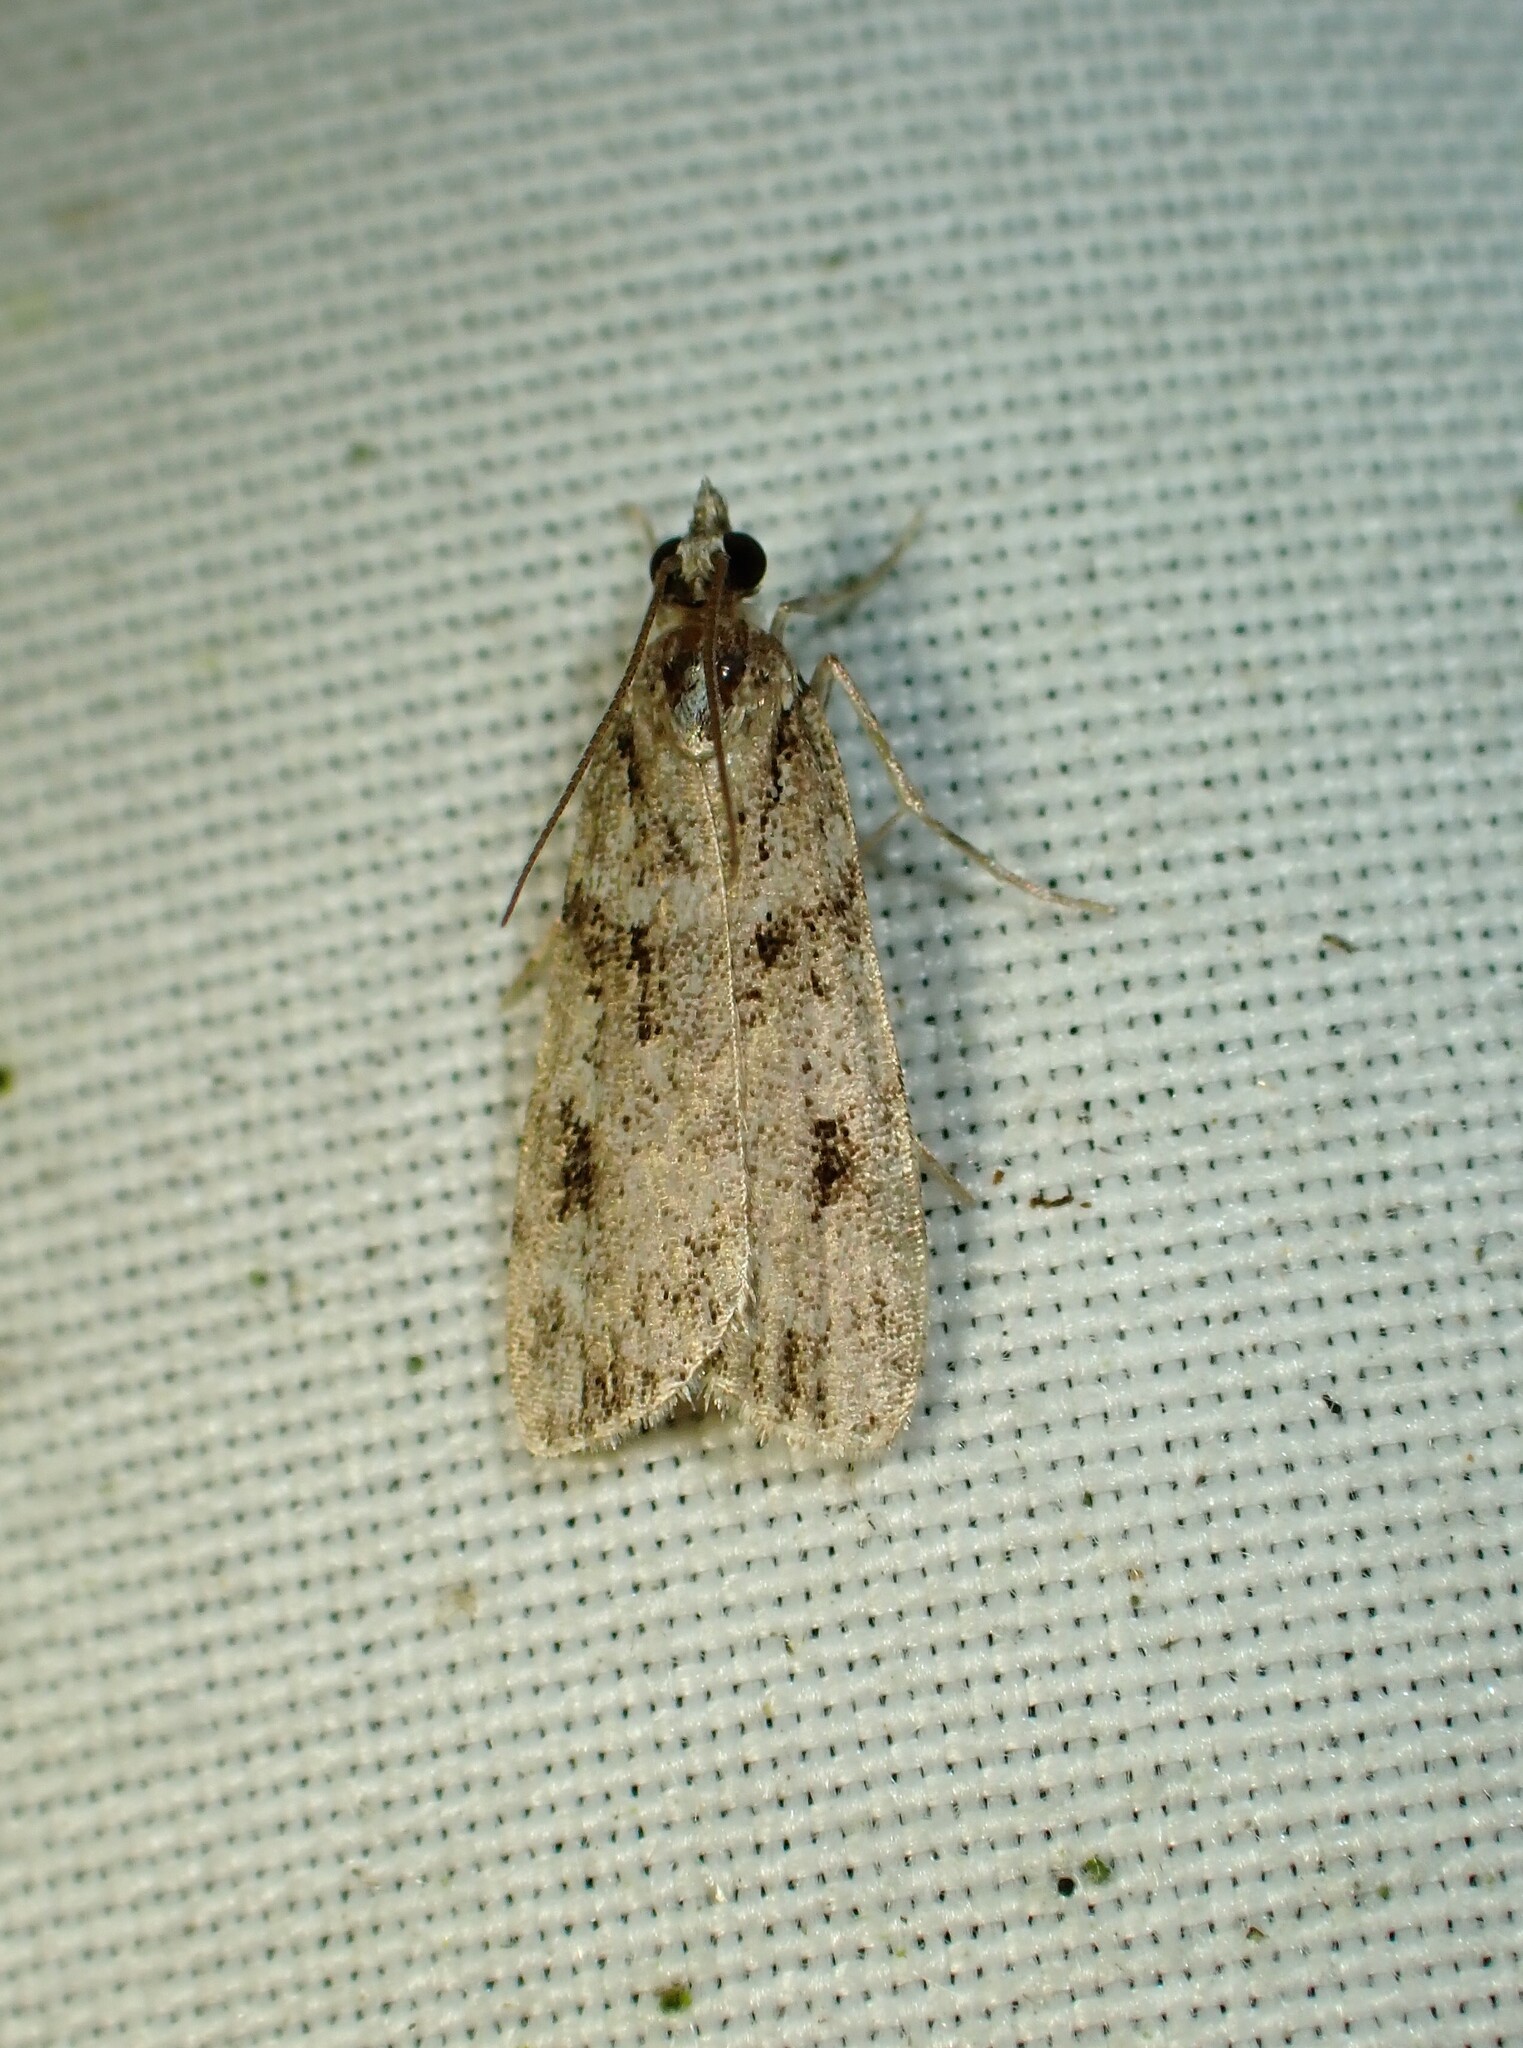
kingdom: Animalia
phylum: Arthropoda
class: Insecta
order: Lepidoptera
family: Crambidae
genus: Scoparia
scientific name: Scoparia biplagialis
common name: Double-striped scoparia moth
